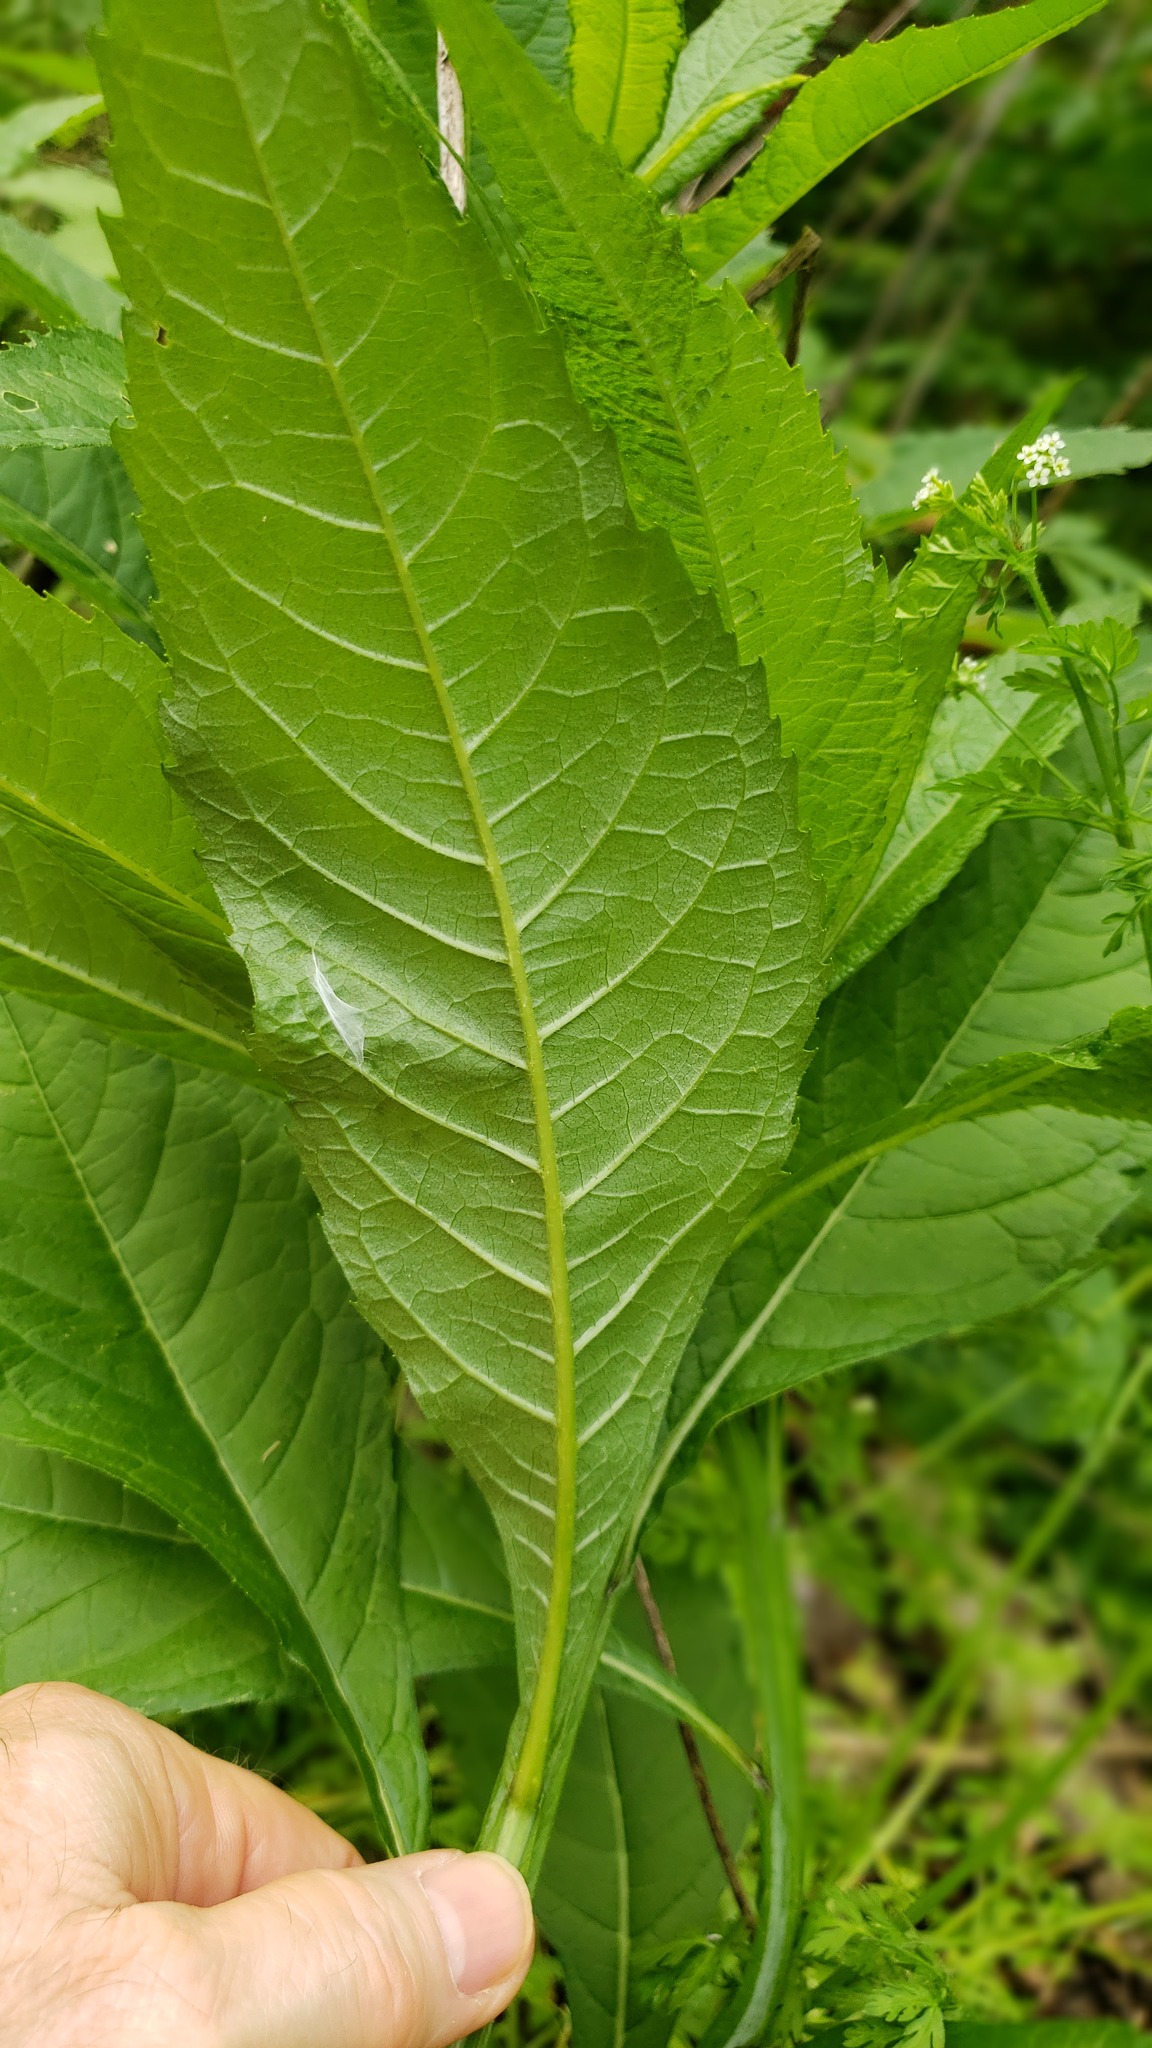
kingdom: Plantae
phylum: Tracheophyta
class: Magnoliopsida
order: Asterales
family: Asteraceae
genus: Verbesina
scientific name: Verbesina alternifolia
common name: Wingstem
